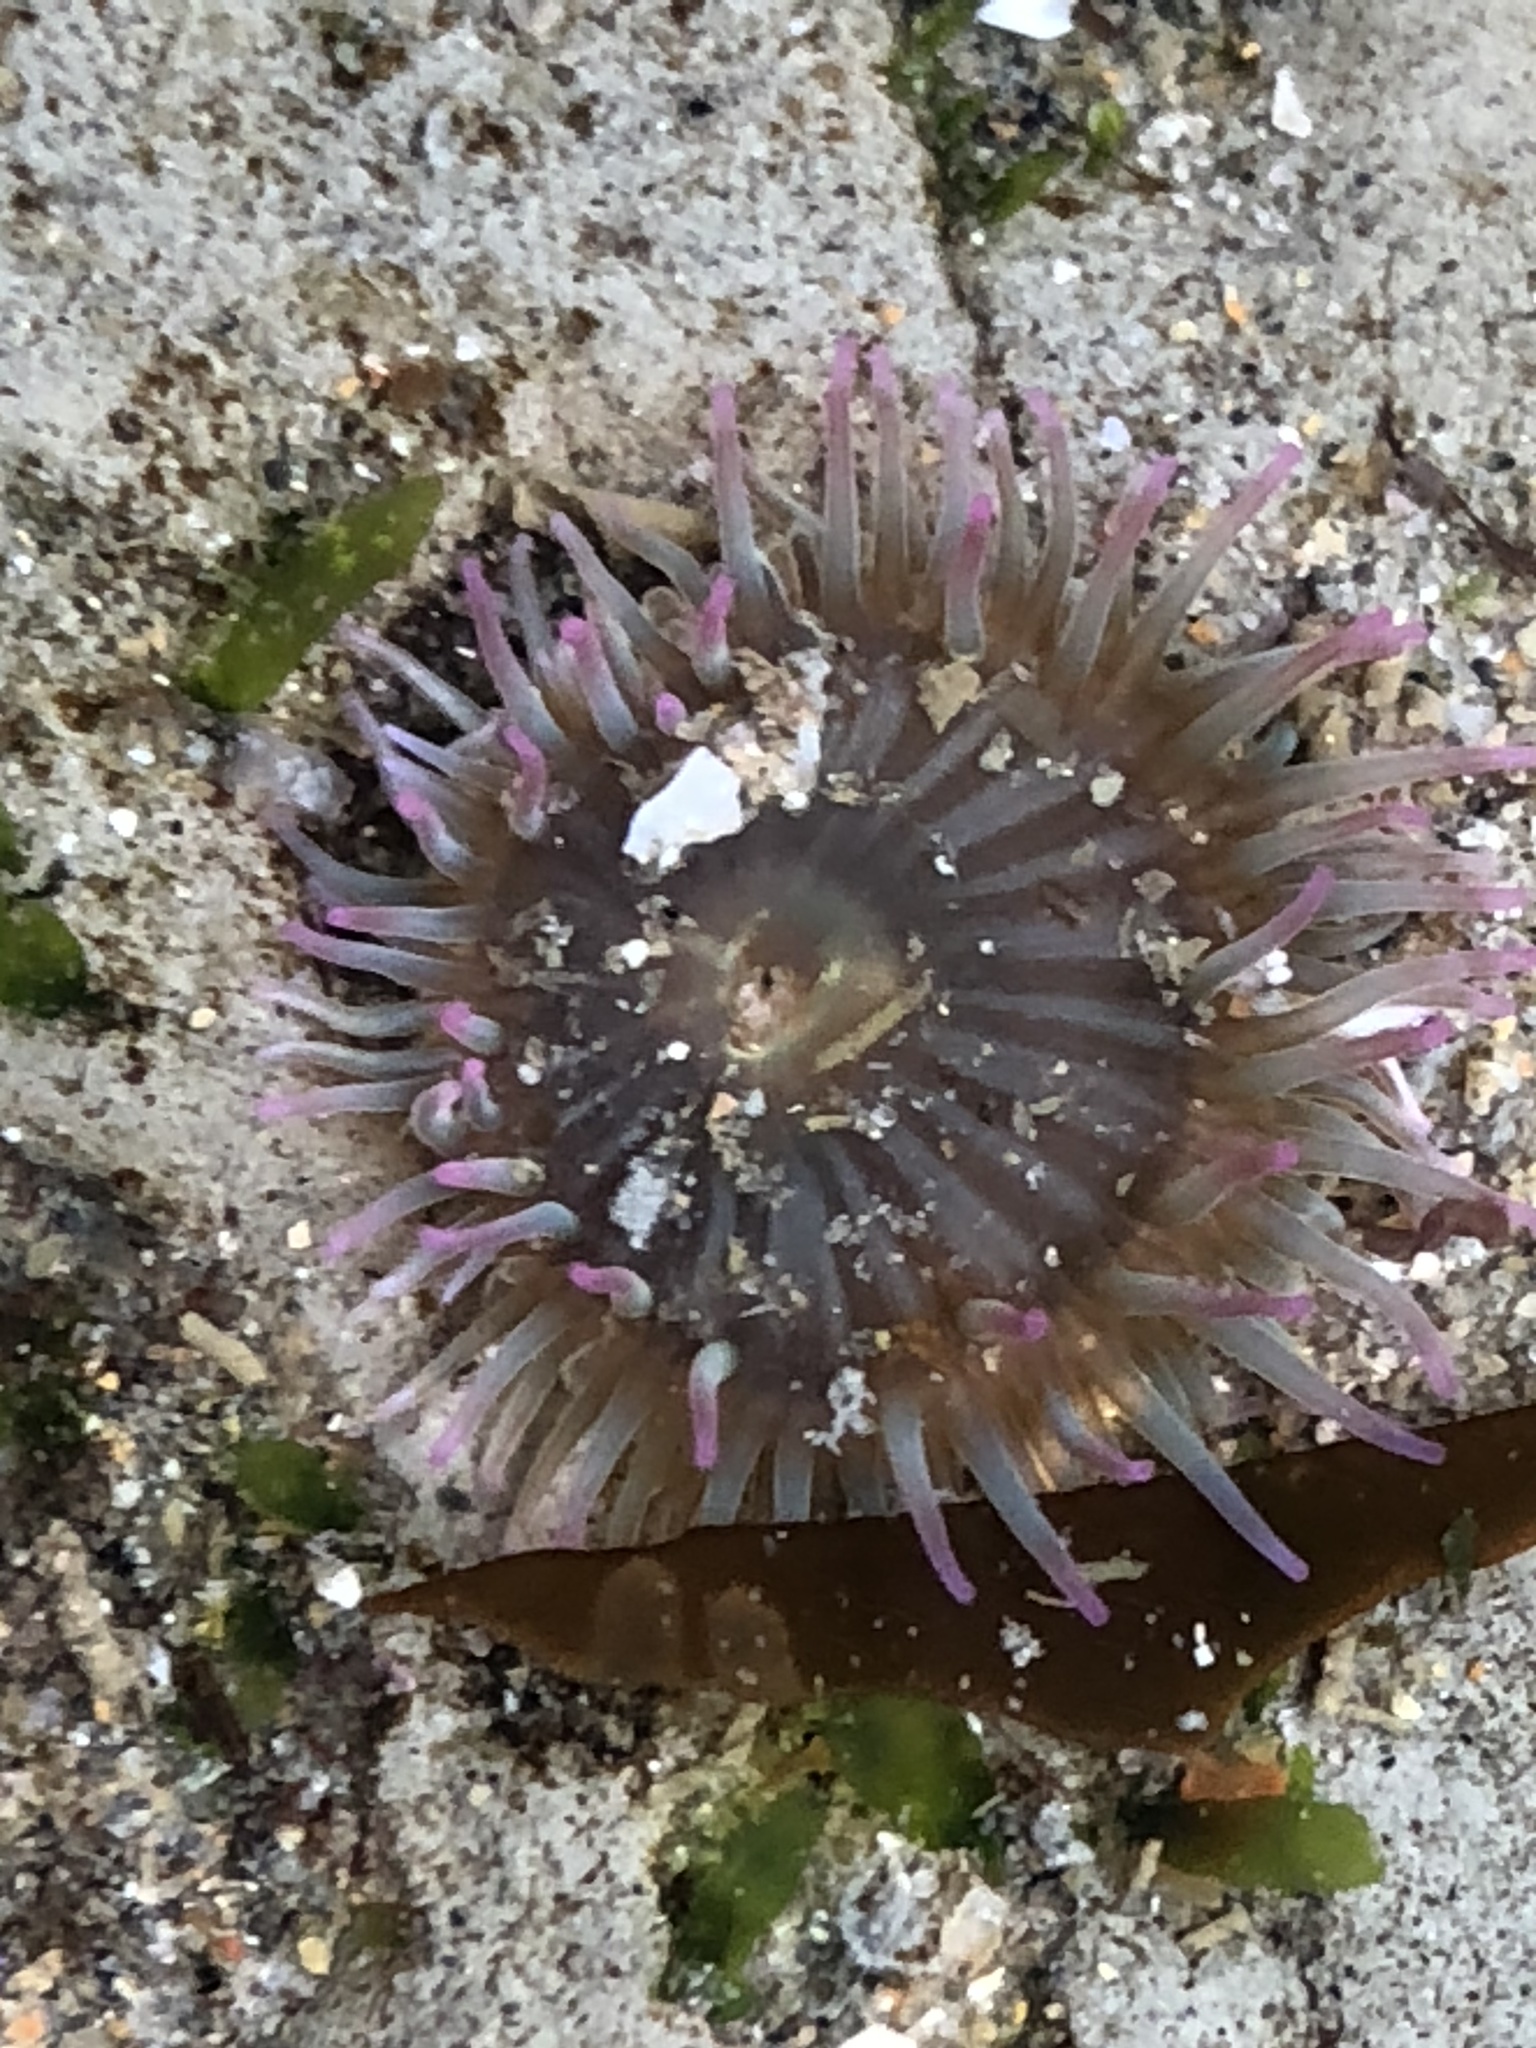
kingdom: Animalia
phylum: Cnidaria
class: Anthozoa
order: Actiniaria
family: Actiniidae
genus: Anthopleura
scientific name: Anthopleura elegantissima
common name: Clonal anemone
